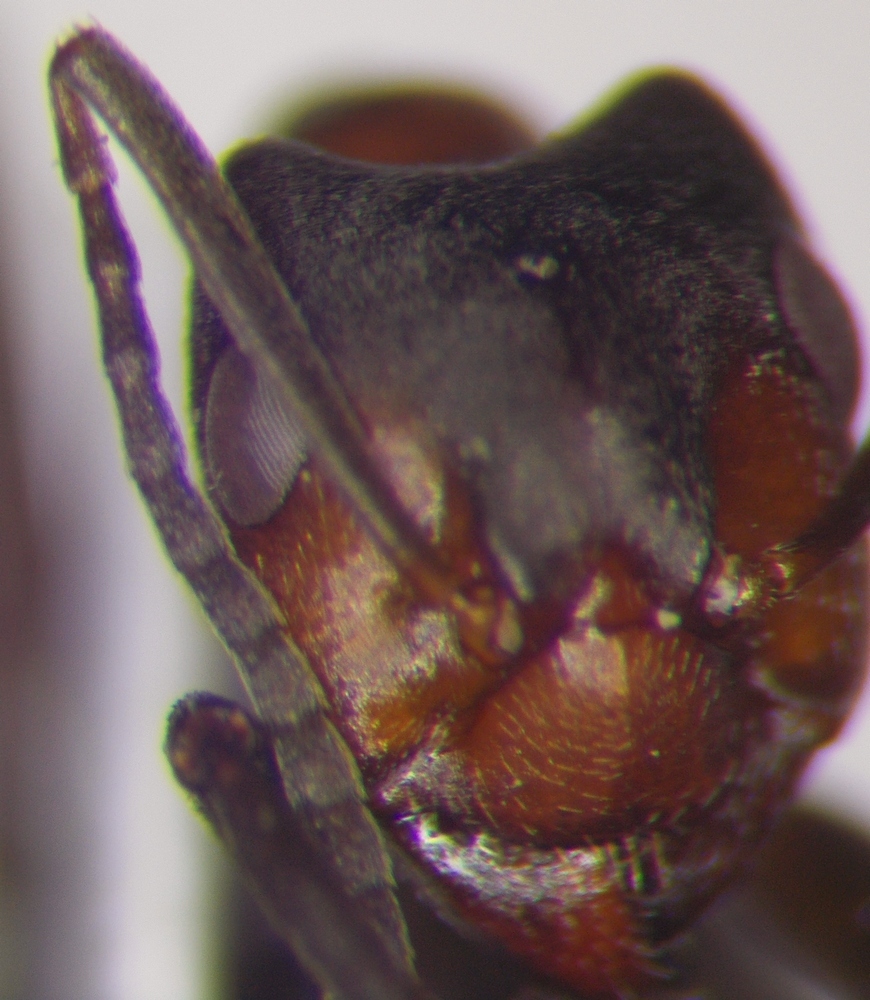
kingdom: Animalia
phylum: Arthropoda
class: Insecta
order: Hymenoptera
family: Formicidae
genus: Formica
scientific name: Formica foreli
